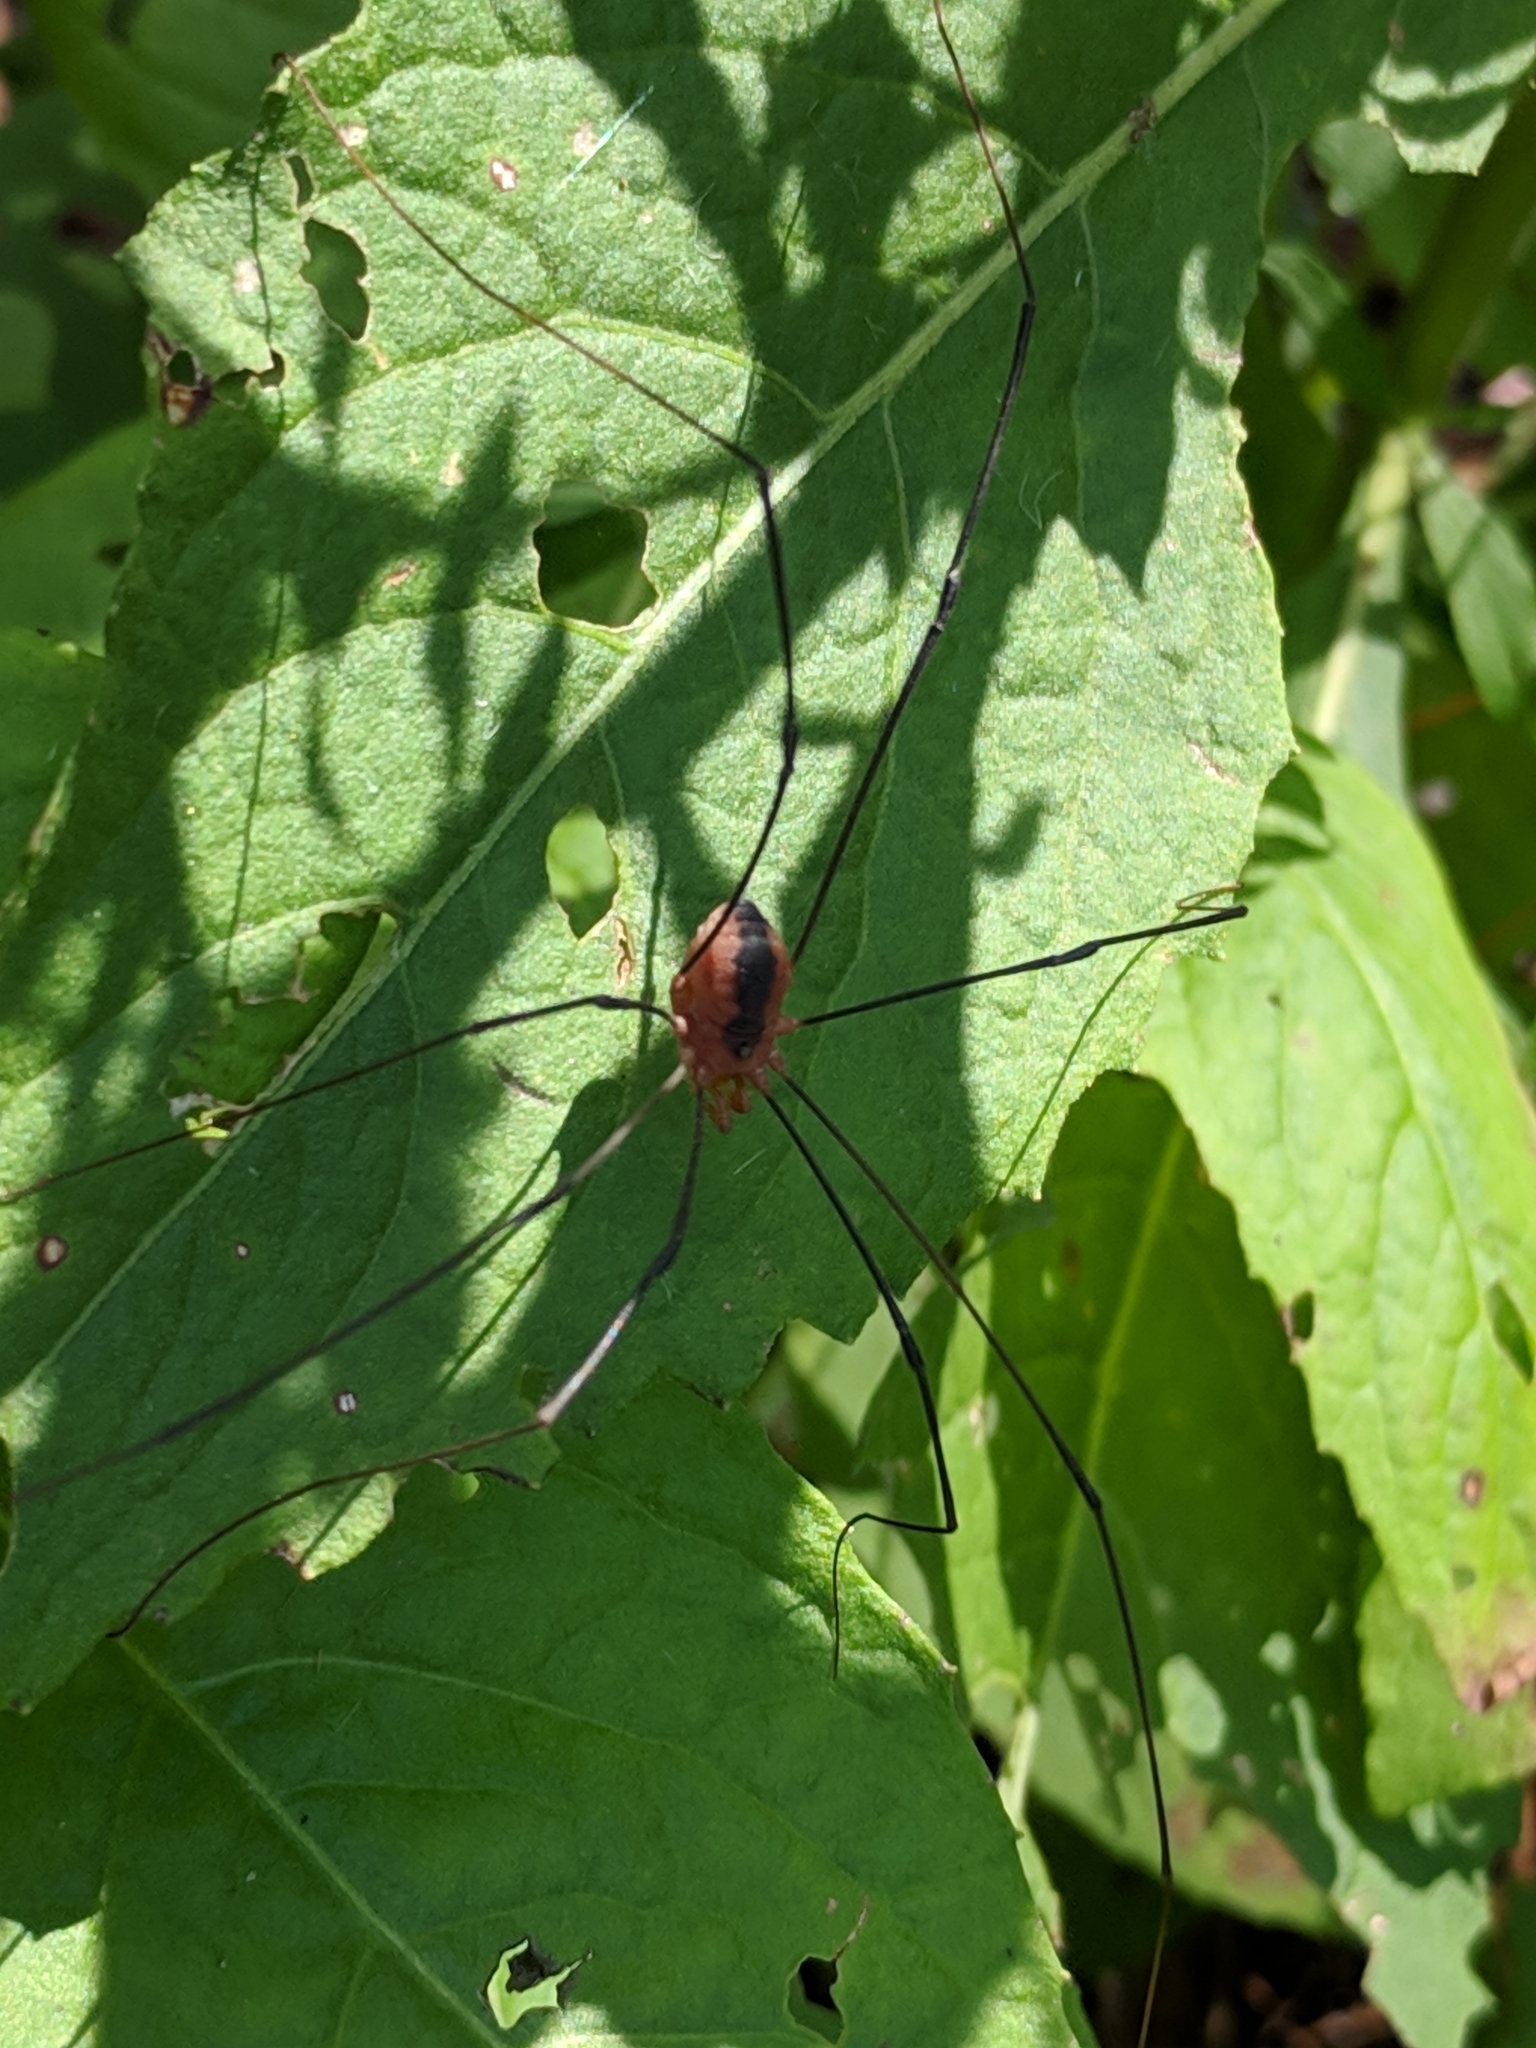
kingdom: Animalia
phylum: Arthropoda
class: Arachnida
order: Opiliones
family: Sclerosomatidae
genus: Leiobunum
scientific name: Leiobunum vittatum
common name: Eastern harvestman
